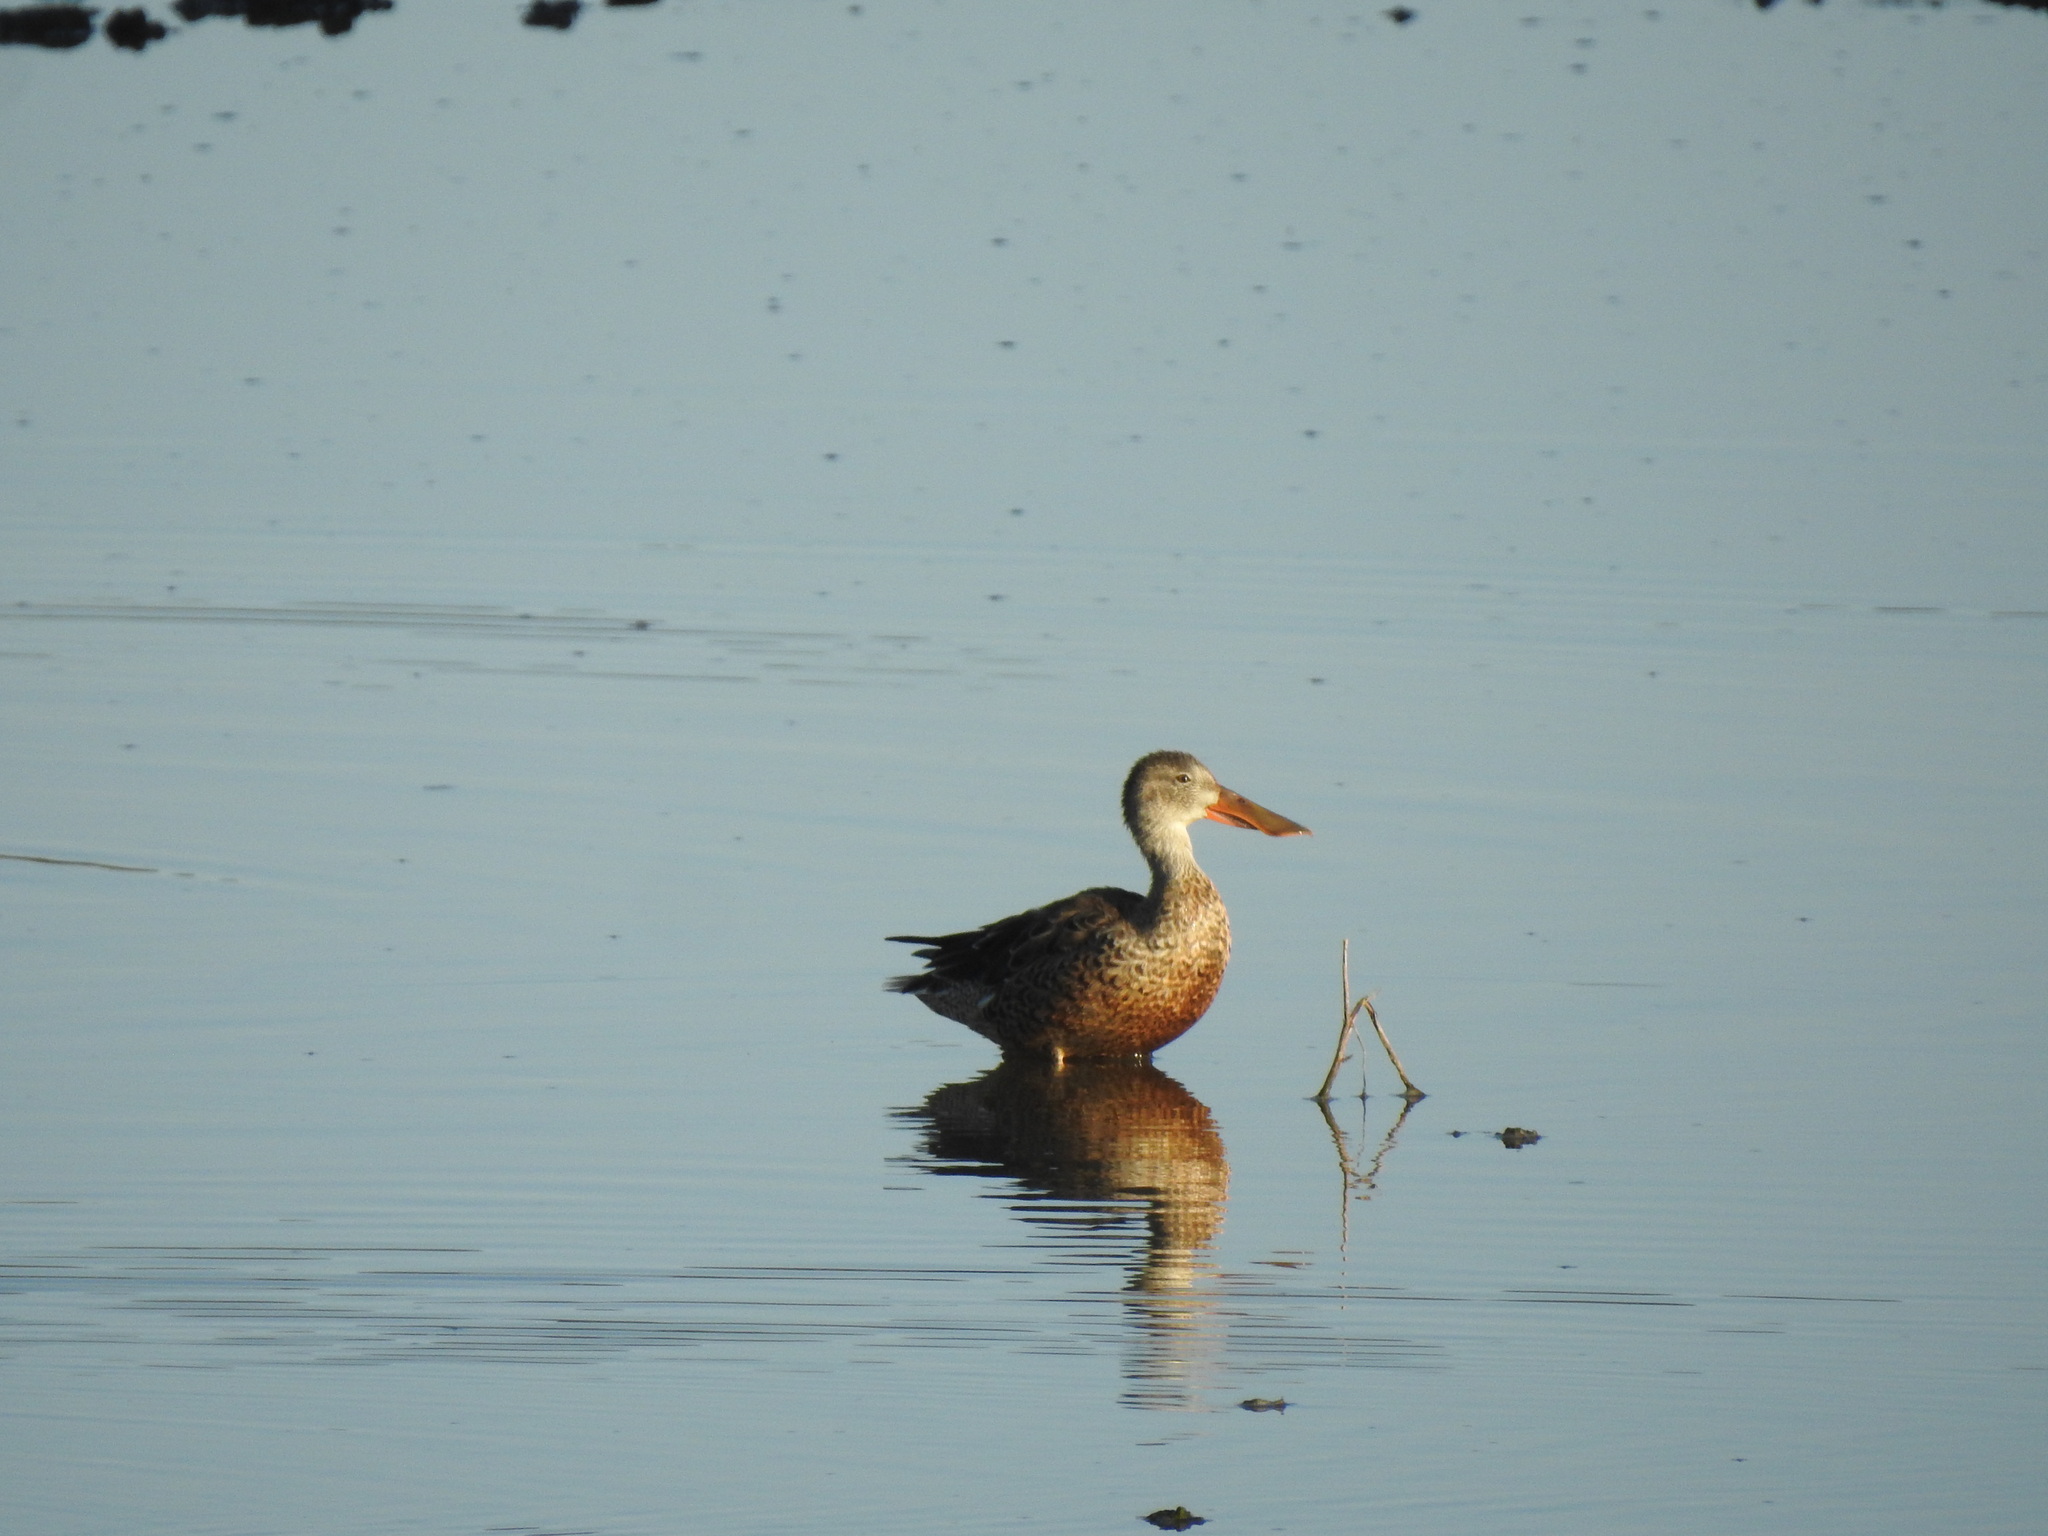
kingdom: Animalia
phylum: Chordata
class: Aves
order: Anseriformes
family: Anatidae
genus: Spatula
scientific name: Spatula clypeata
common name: Northern shoveler
